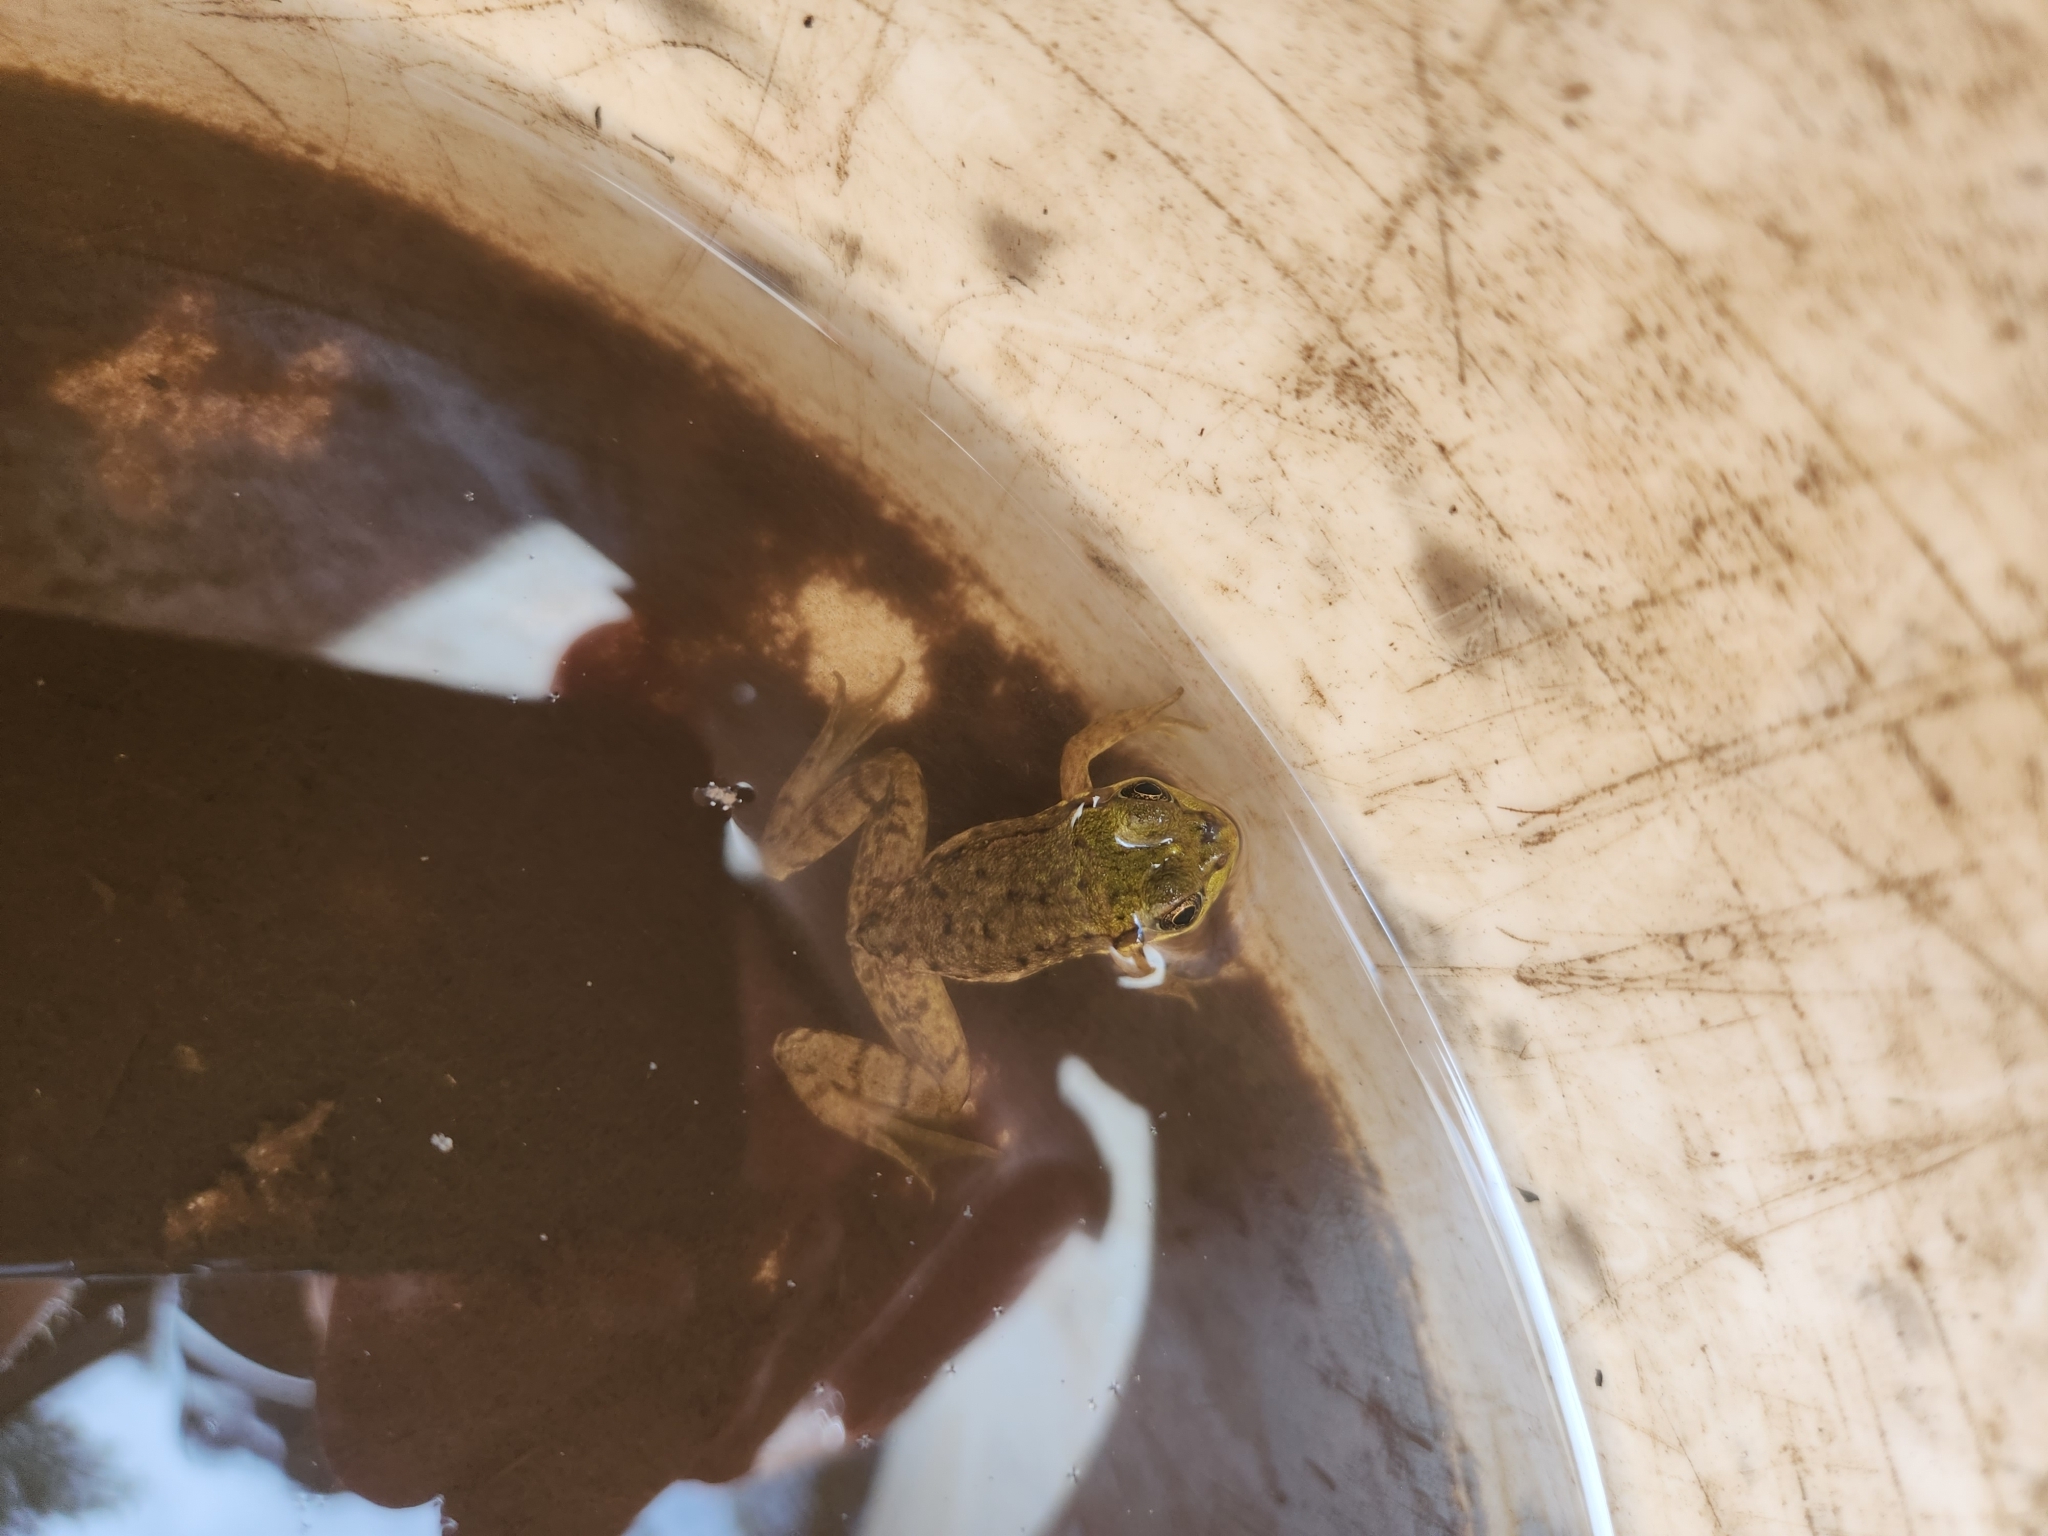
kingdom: Animalia
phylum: Chordata
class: Amphibia
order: Anura
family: Ranidae
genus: Lithobates
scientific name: Lithobates clamitans
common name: Green frog
